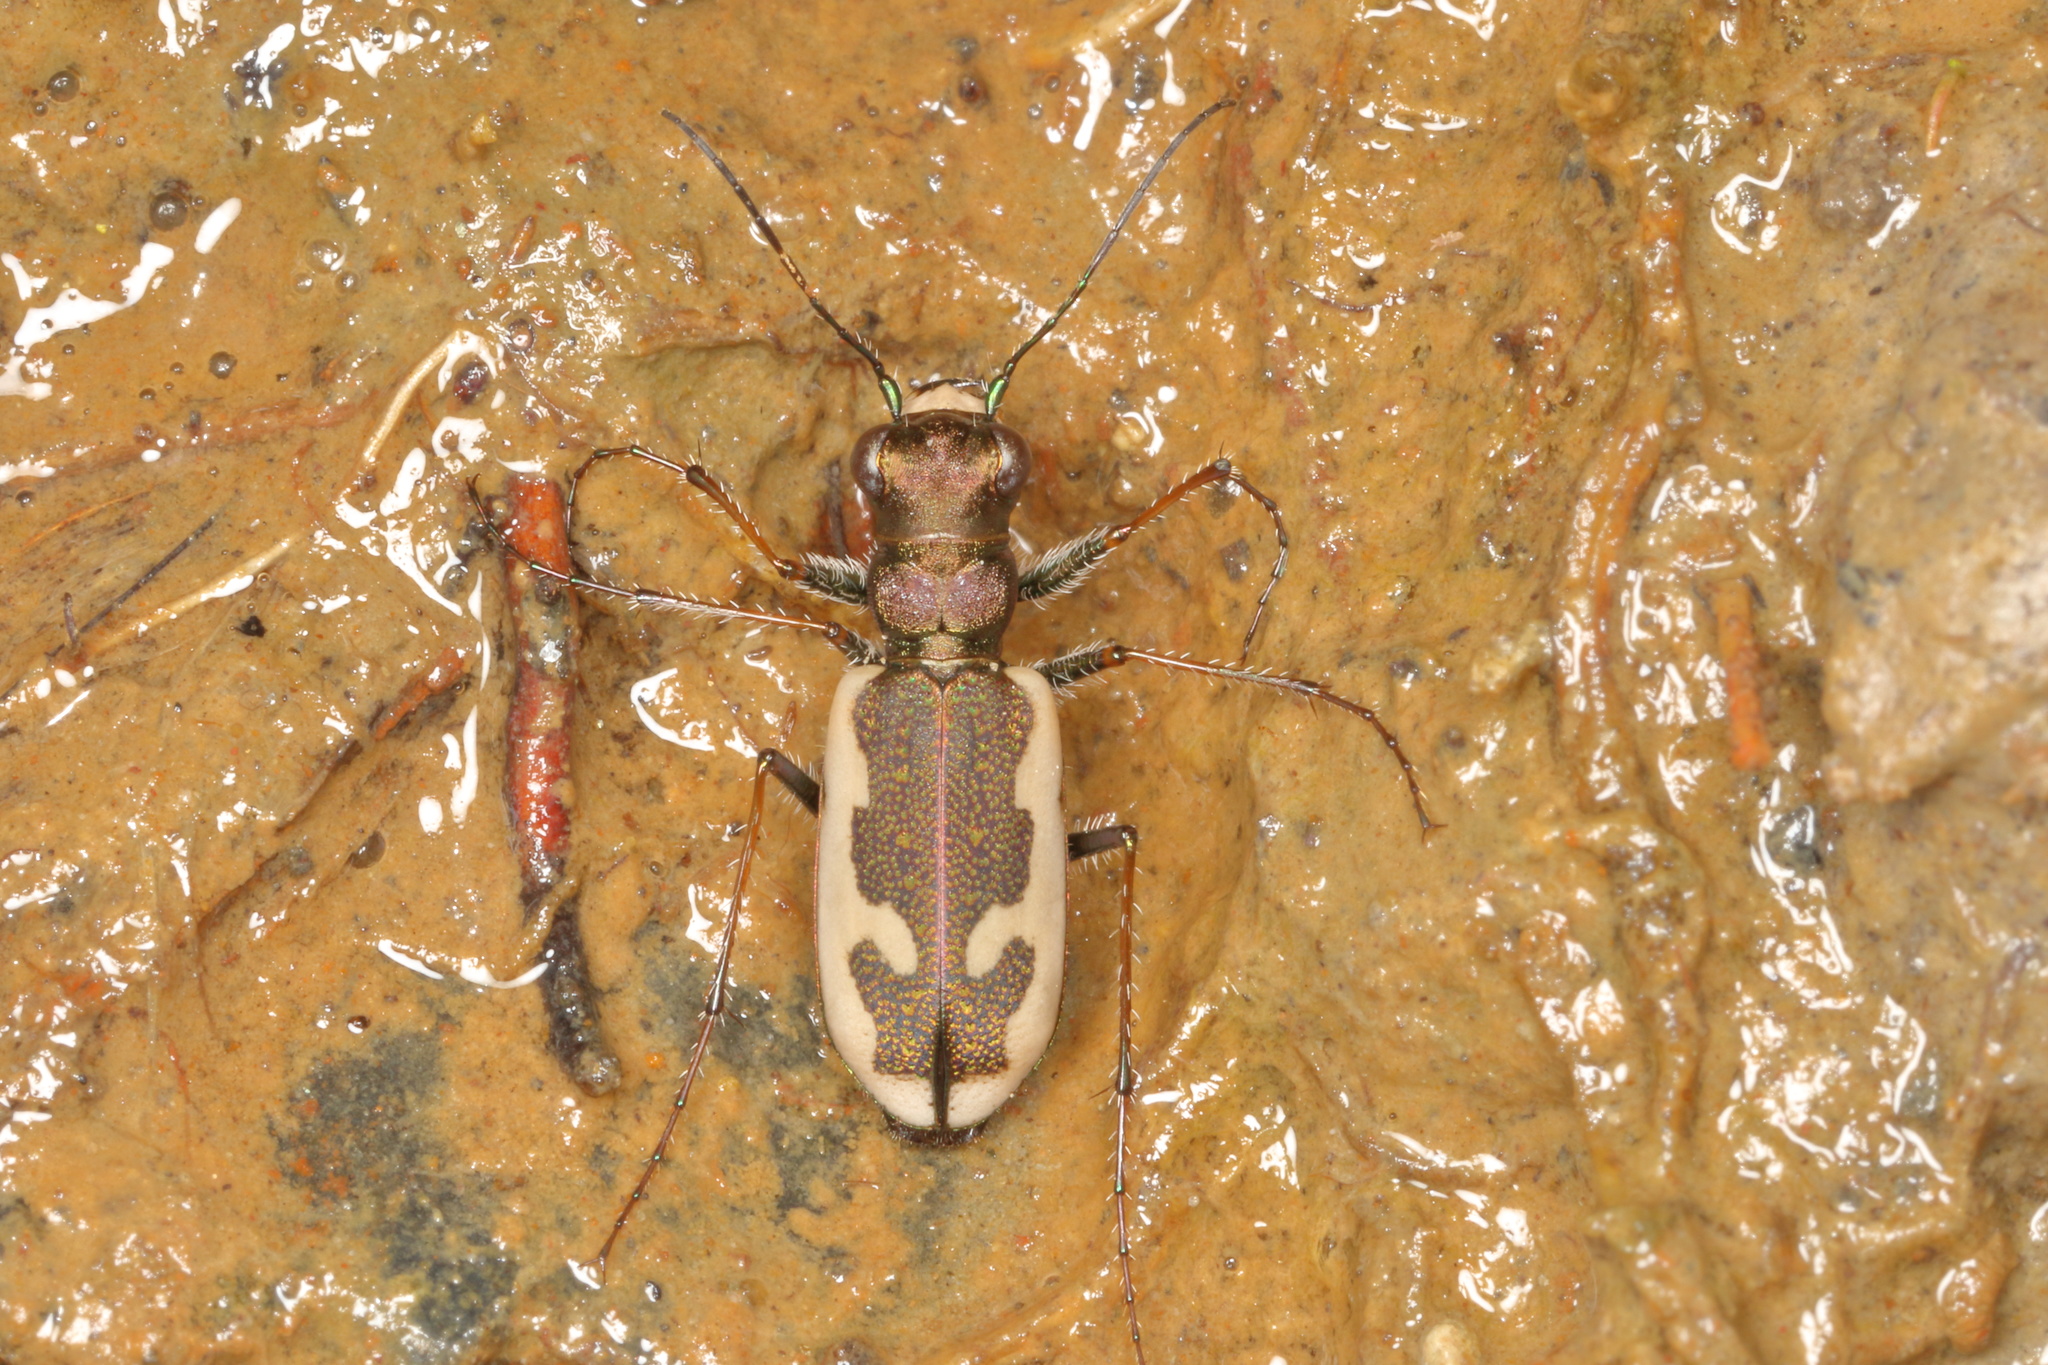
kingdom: Animalia
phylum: Arthropoda
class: Insecta
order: Coleoptera
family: Carabidae
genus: Neocicindela
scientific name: Neocicindela latecincta
